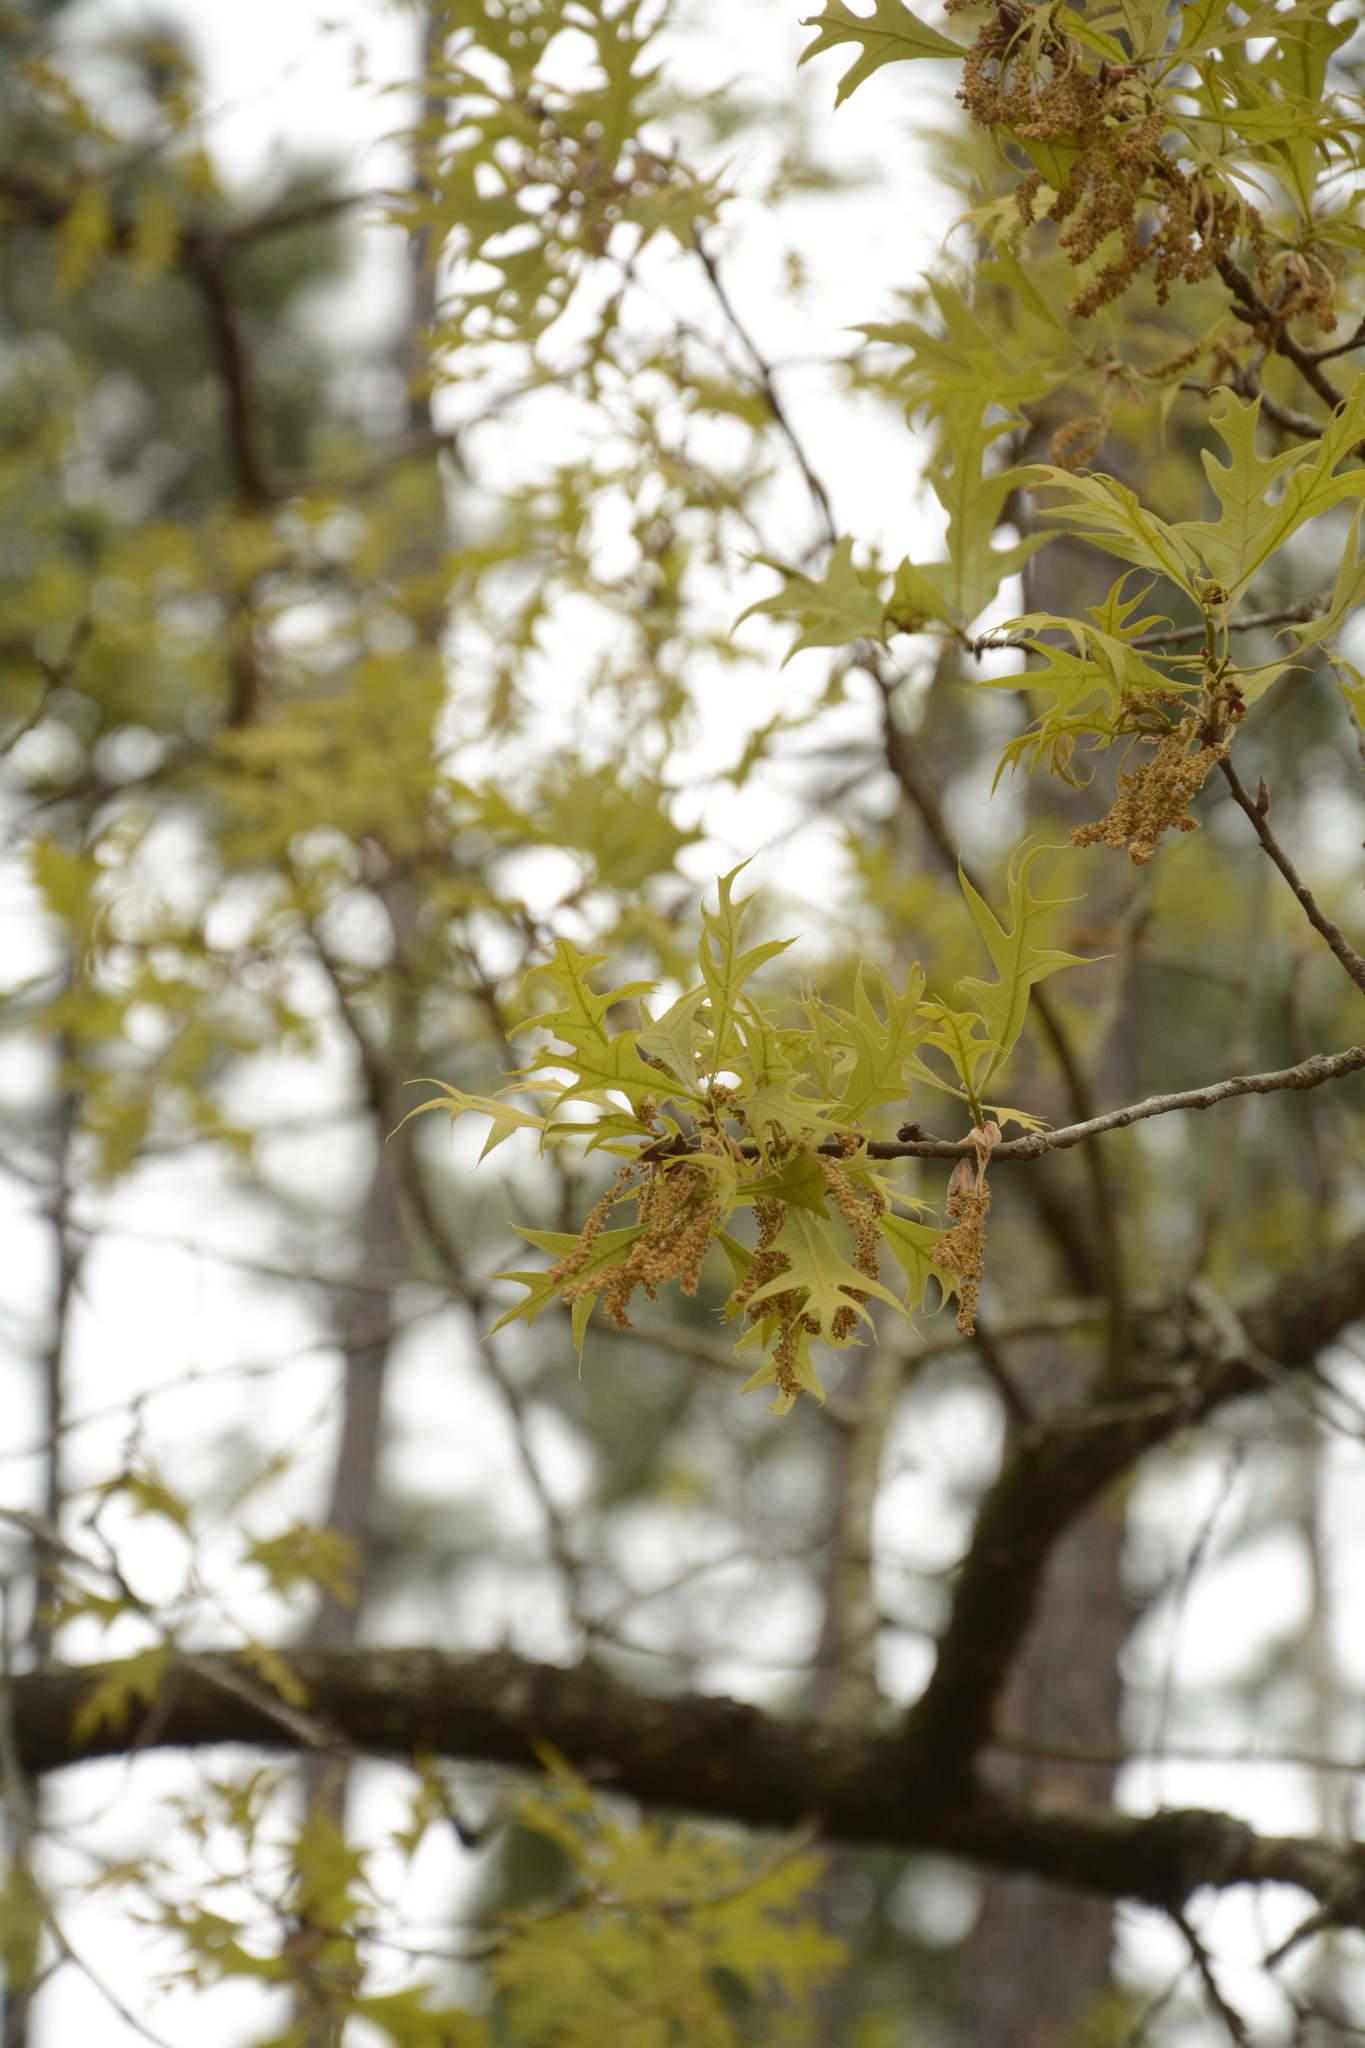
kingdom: Plantae
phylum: Tracheophyta
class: Magnoliopsida
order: Fagales
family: Fagaceae
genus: Quercus
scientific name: Quercus laevis
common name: Turkey oak
